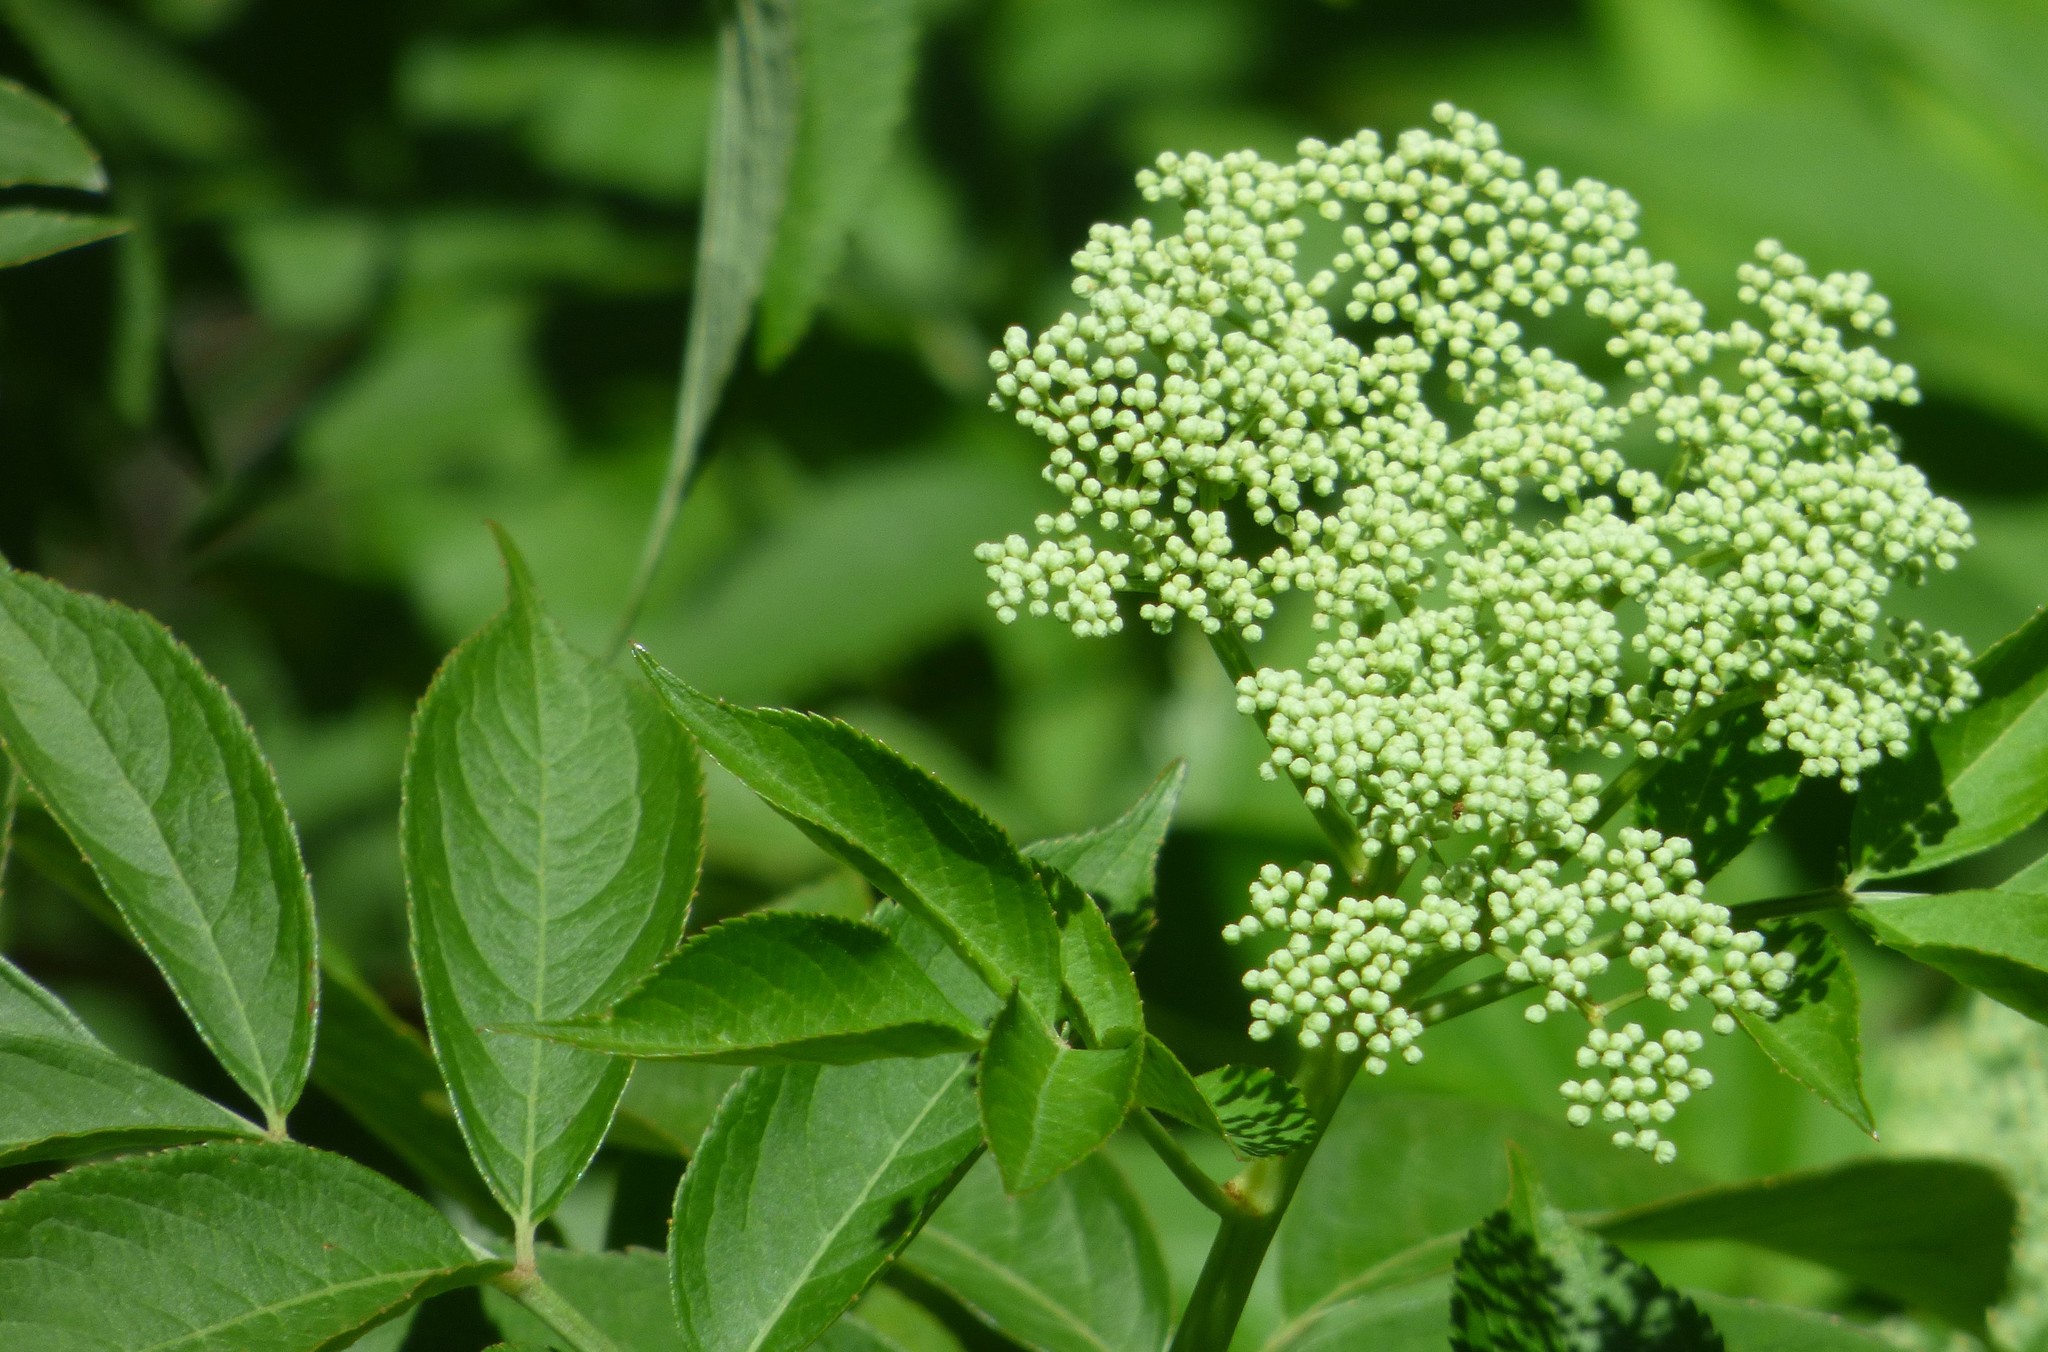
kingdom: Plantae
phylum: Tracheophyta
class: Magnoliopsida
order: Dipsacales
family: Viburnaceae
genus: Sambucus
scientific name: Sambucus canadensis
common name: American elder
